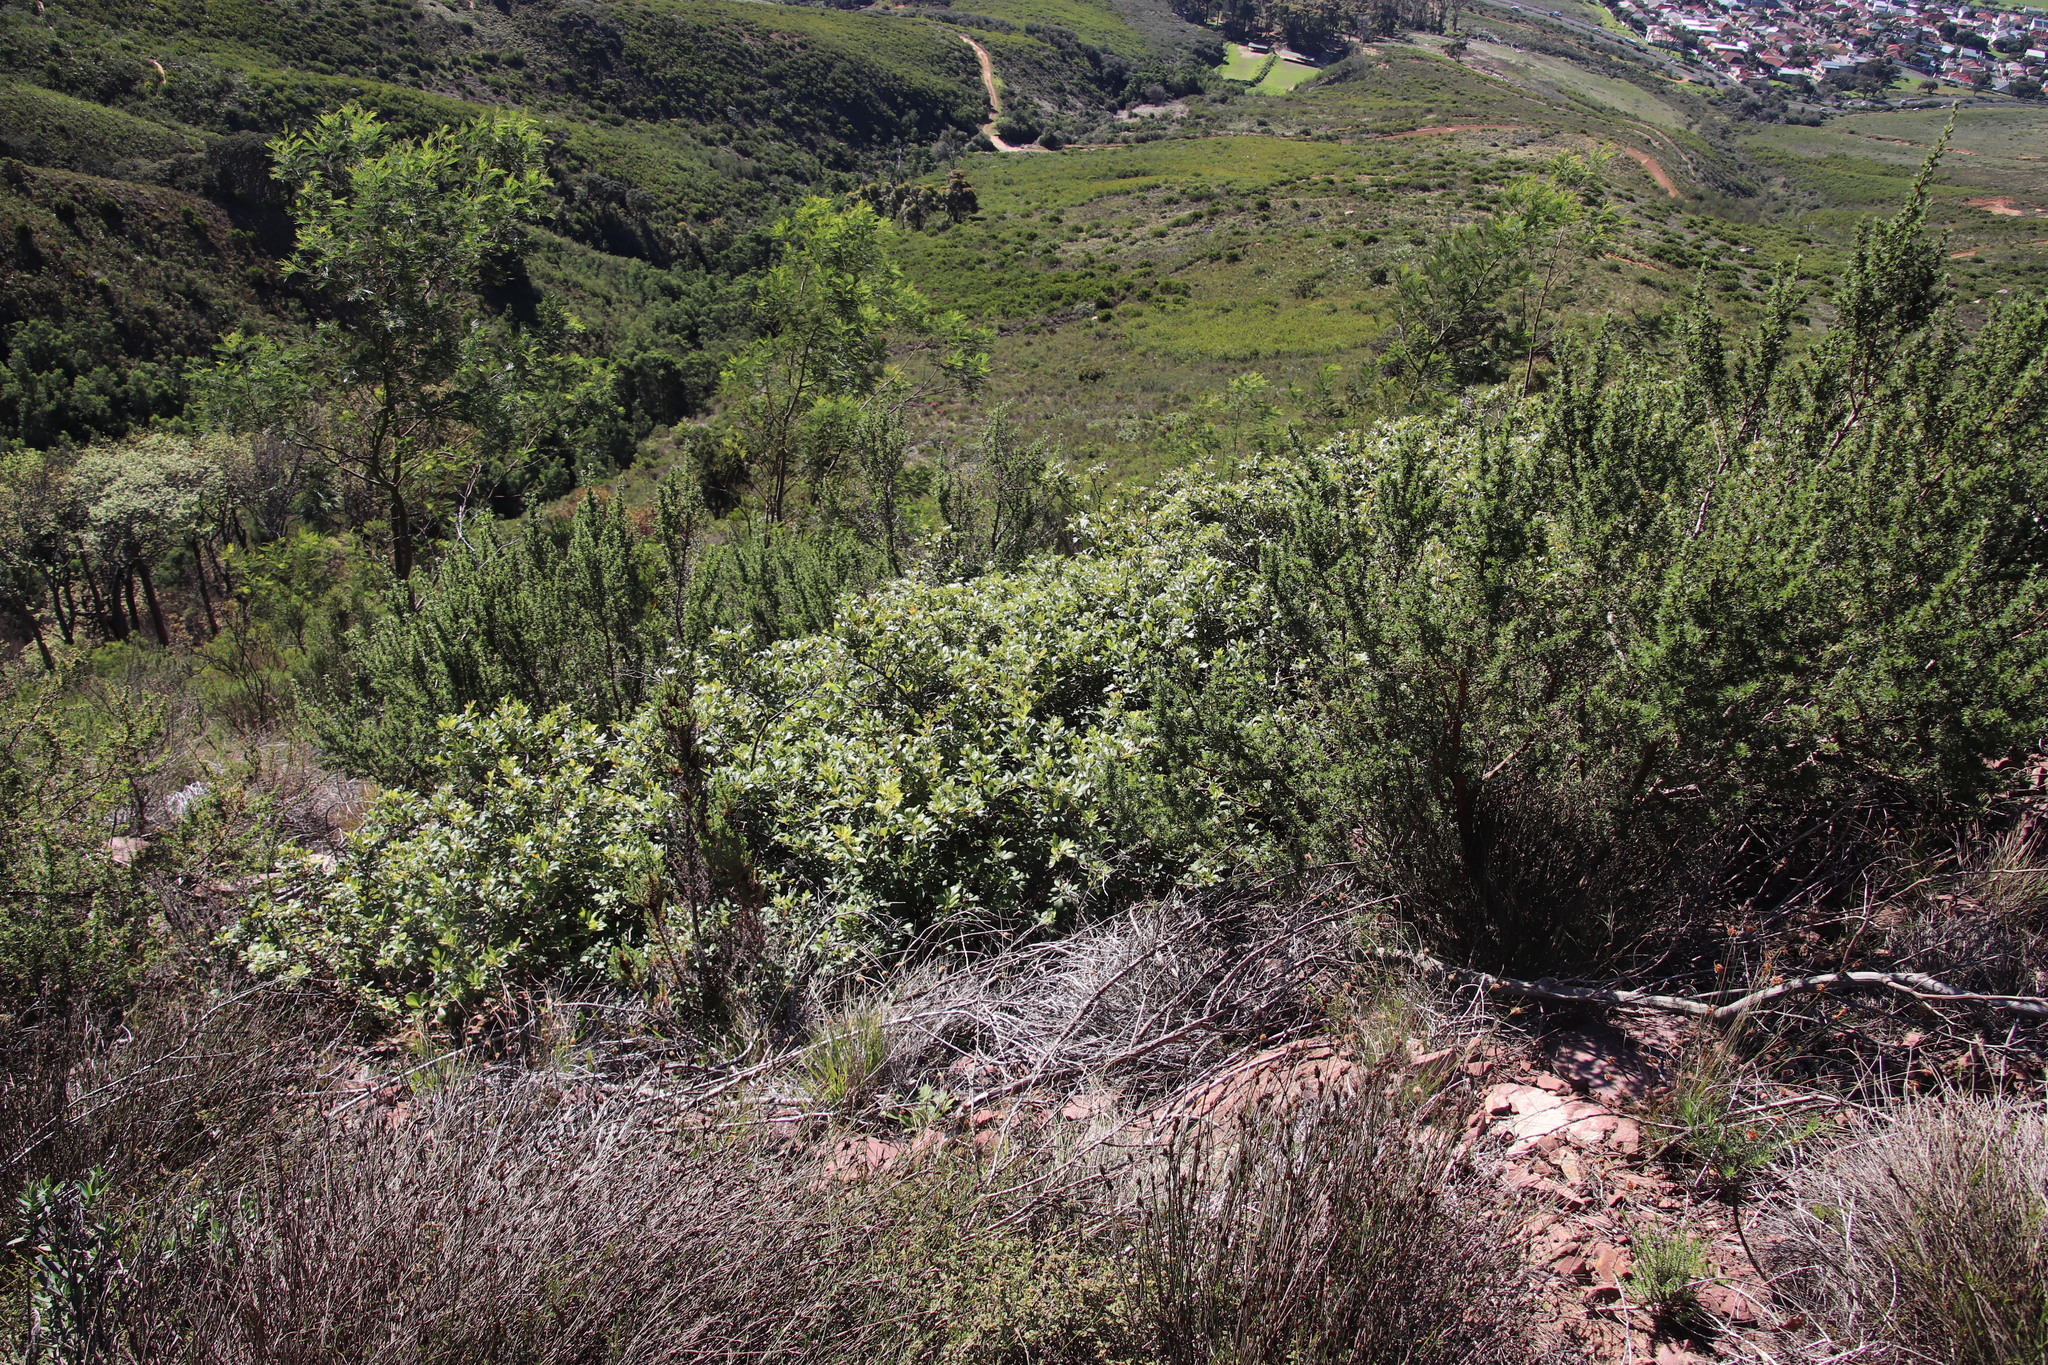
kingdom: Plantae
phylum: Tracheophyta
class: Magnoliopsida
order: Sapindales
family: Anacardiaceae
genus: Searsia
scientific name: Searsia tomentosa
